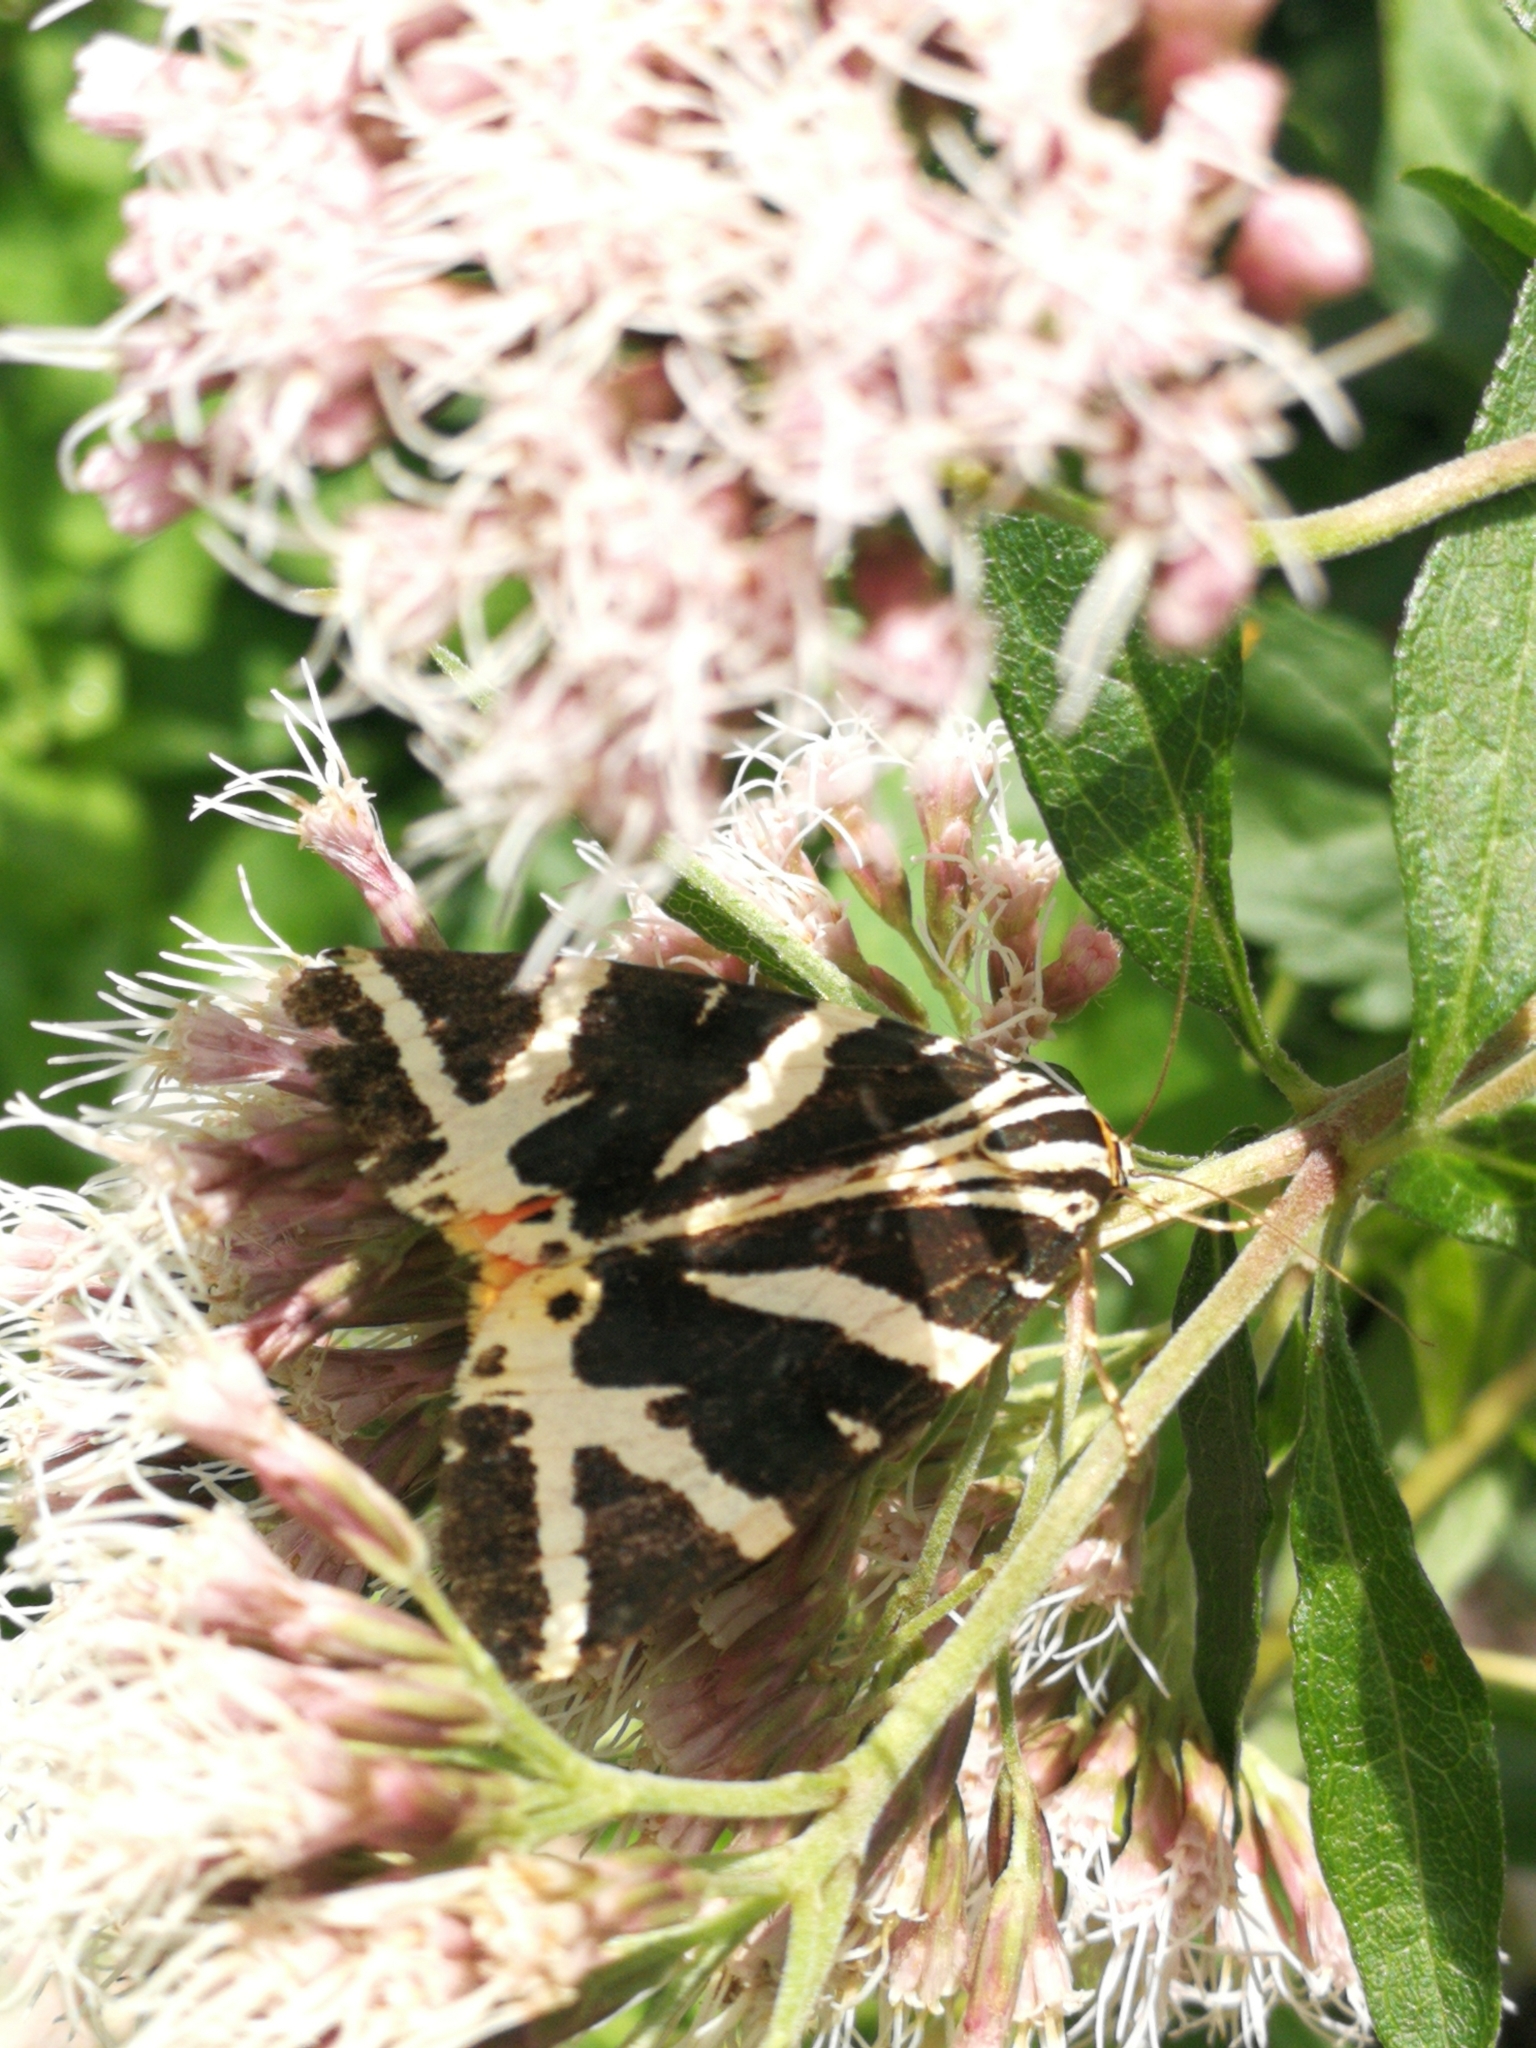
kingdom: Animalia
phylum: Arthropoda
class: Insecta
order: Lepidoptera
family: Erebidae
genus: Euplagia
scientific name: Euplagia quadripunctaria
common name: Jersey tiger
